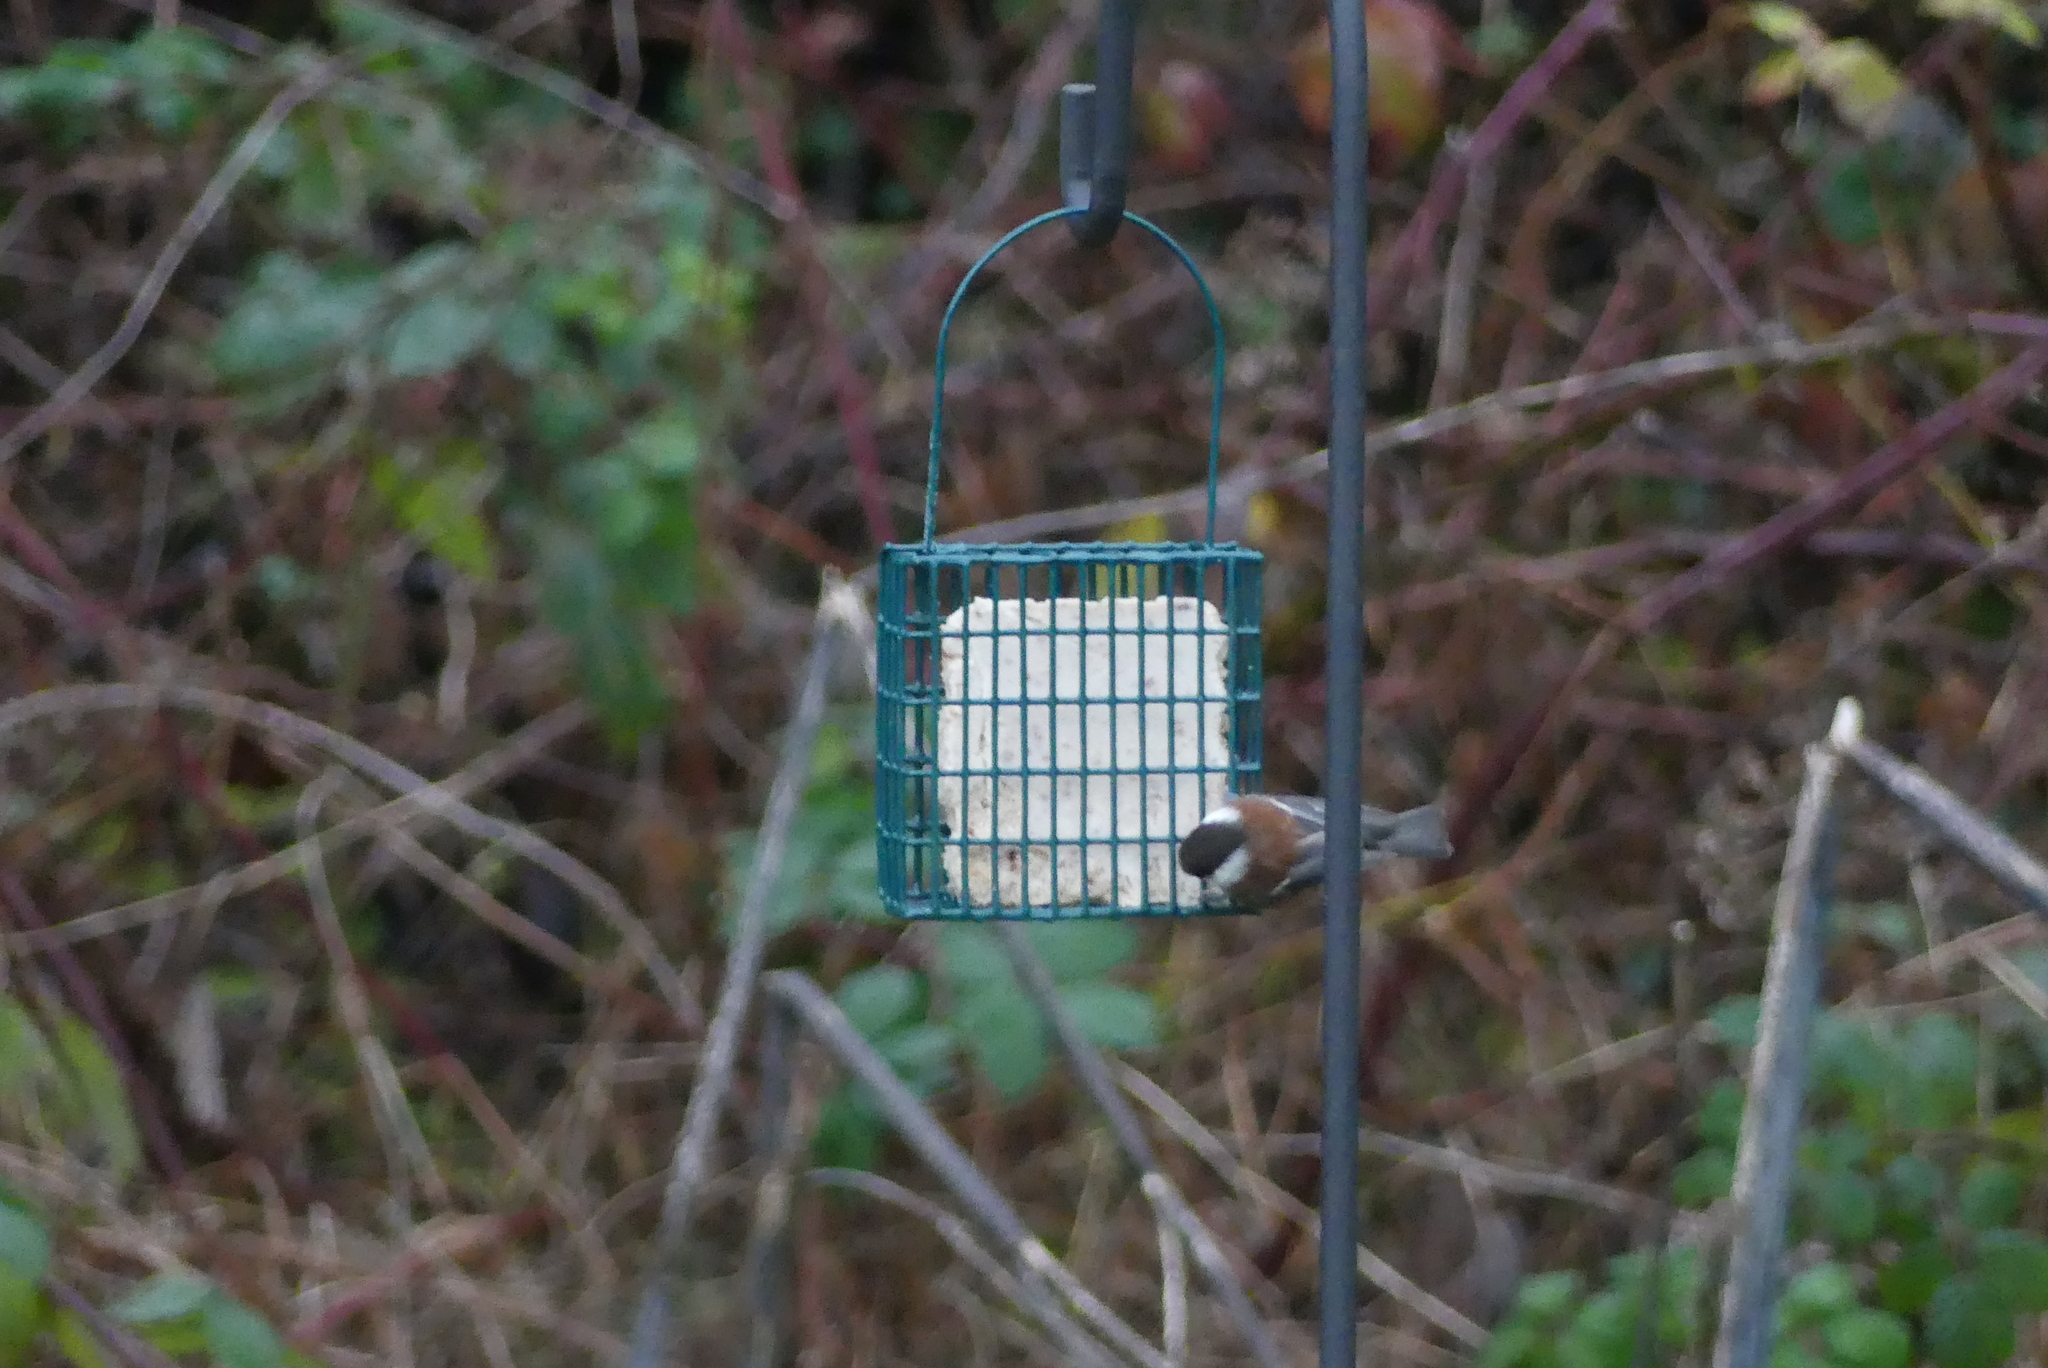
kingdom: Animalia
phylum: Chordata
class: Aves
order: Passeriformes
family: Paridae
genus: Poecile
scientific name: Poecile rufescens
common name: Chestnut-backed chickadee
